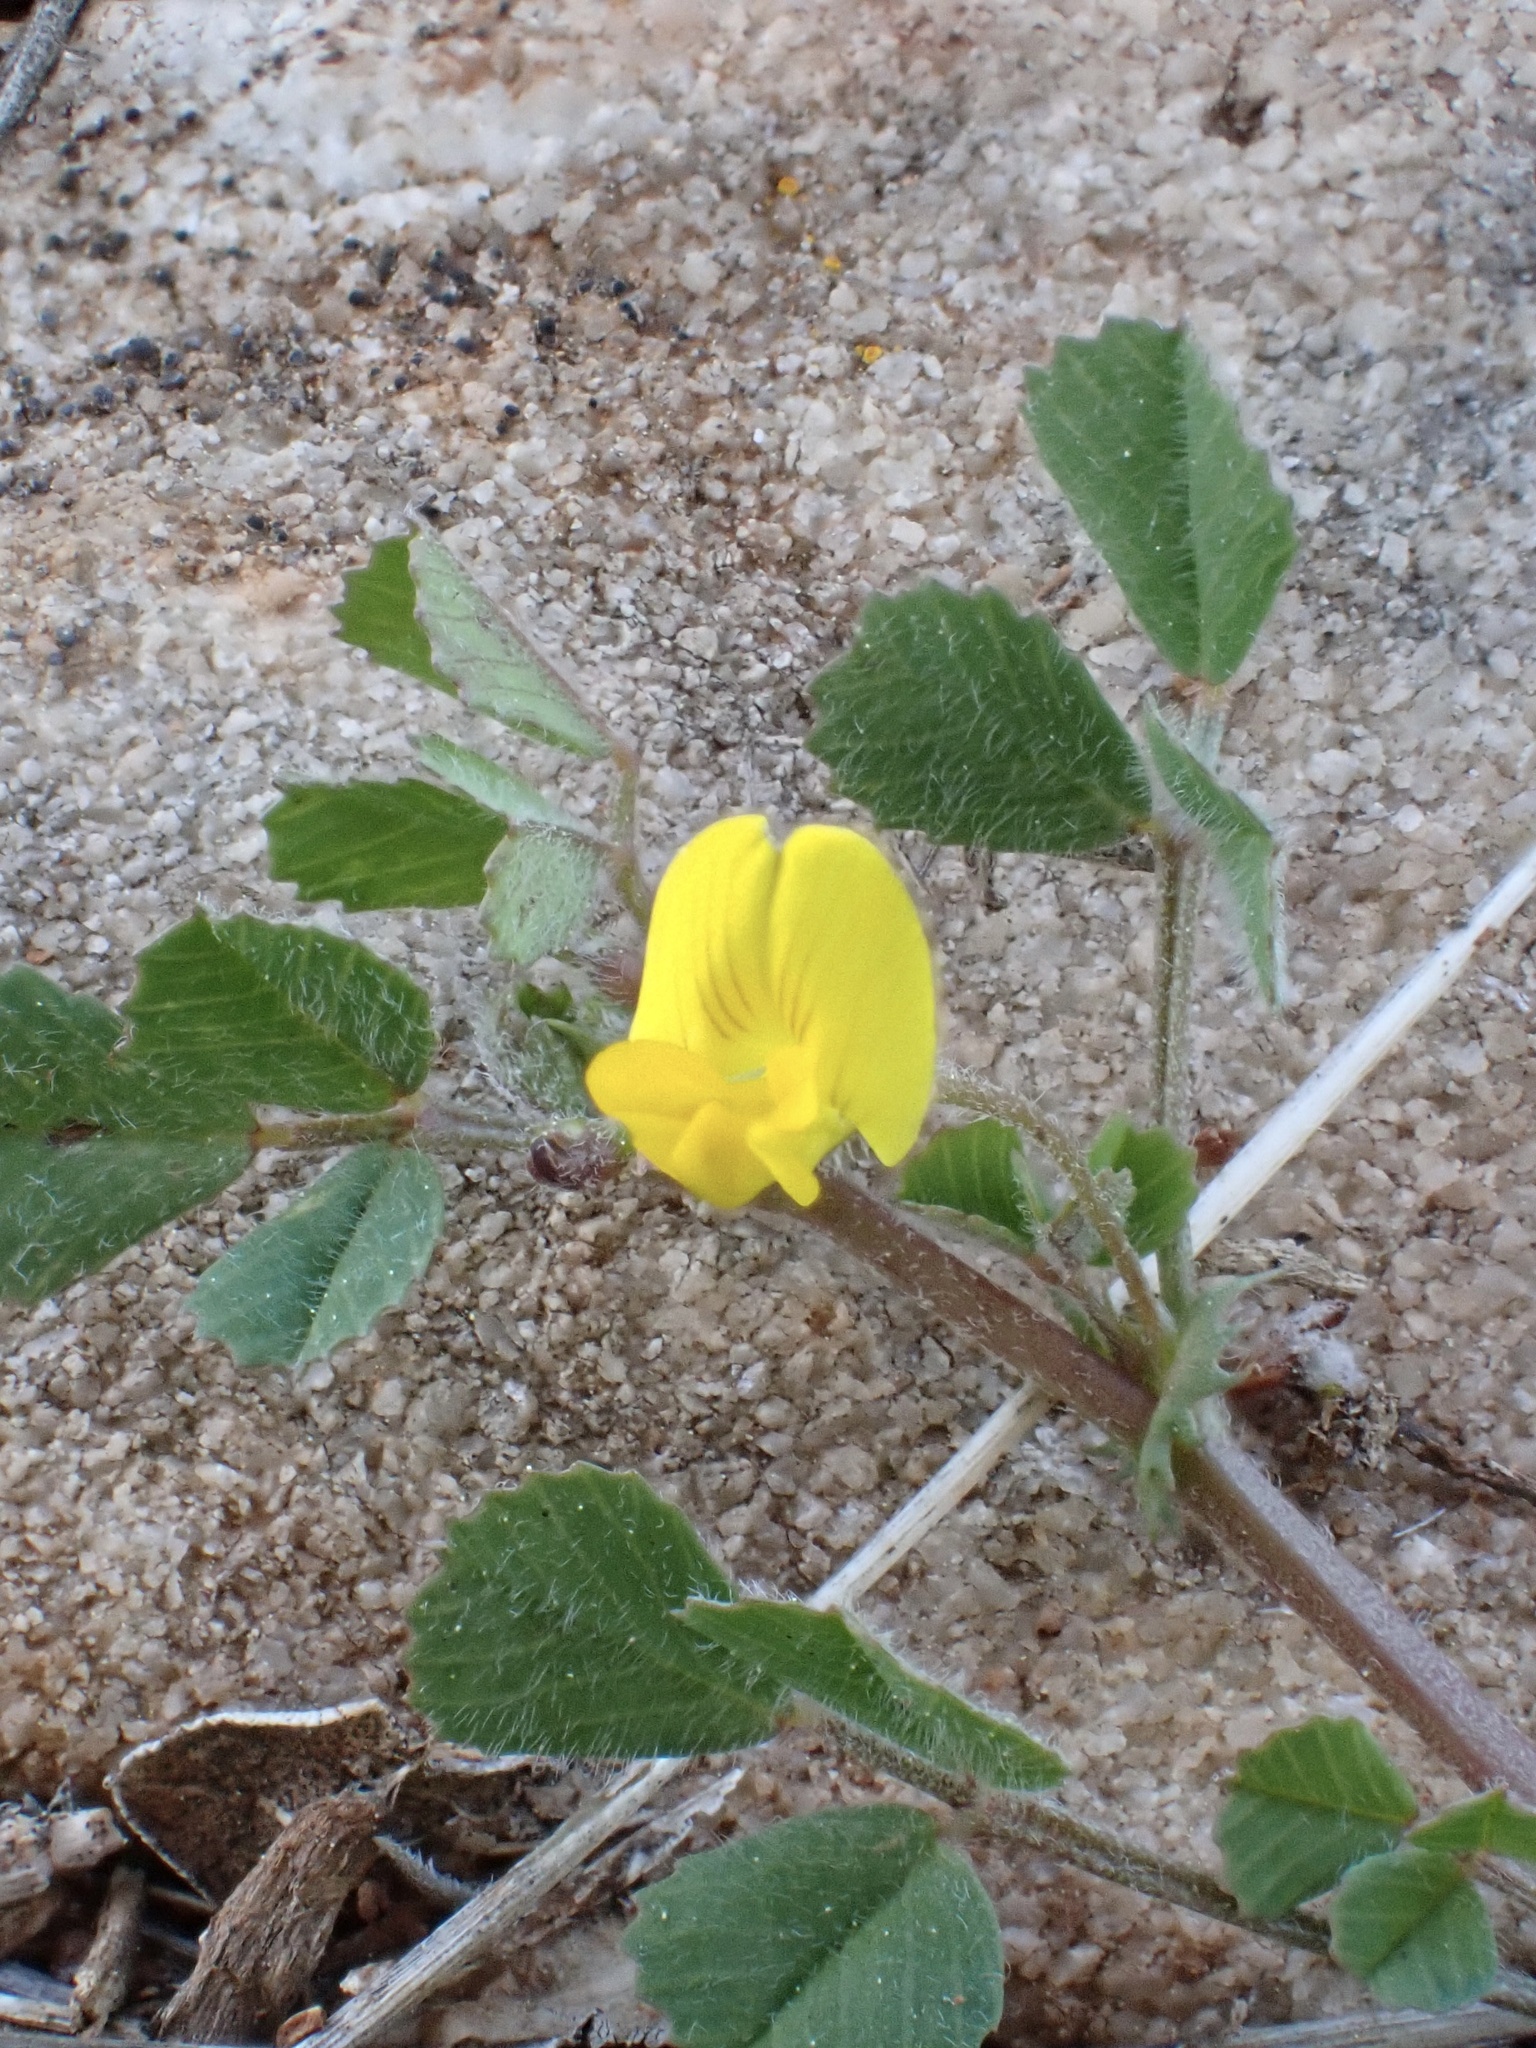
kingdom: Plantae
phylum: Tracheophyta
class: Magnoliopsida
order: Fabales
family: Fabaceae
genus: Medicago
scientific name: Medicago truncatula
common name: Strong-spined medick
